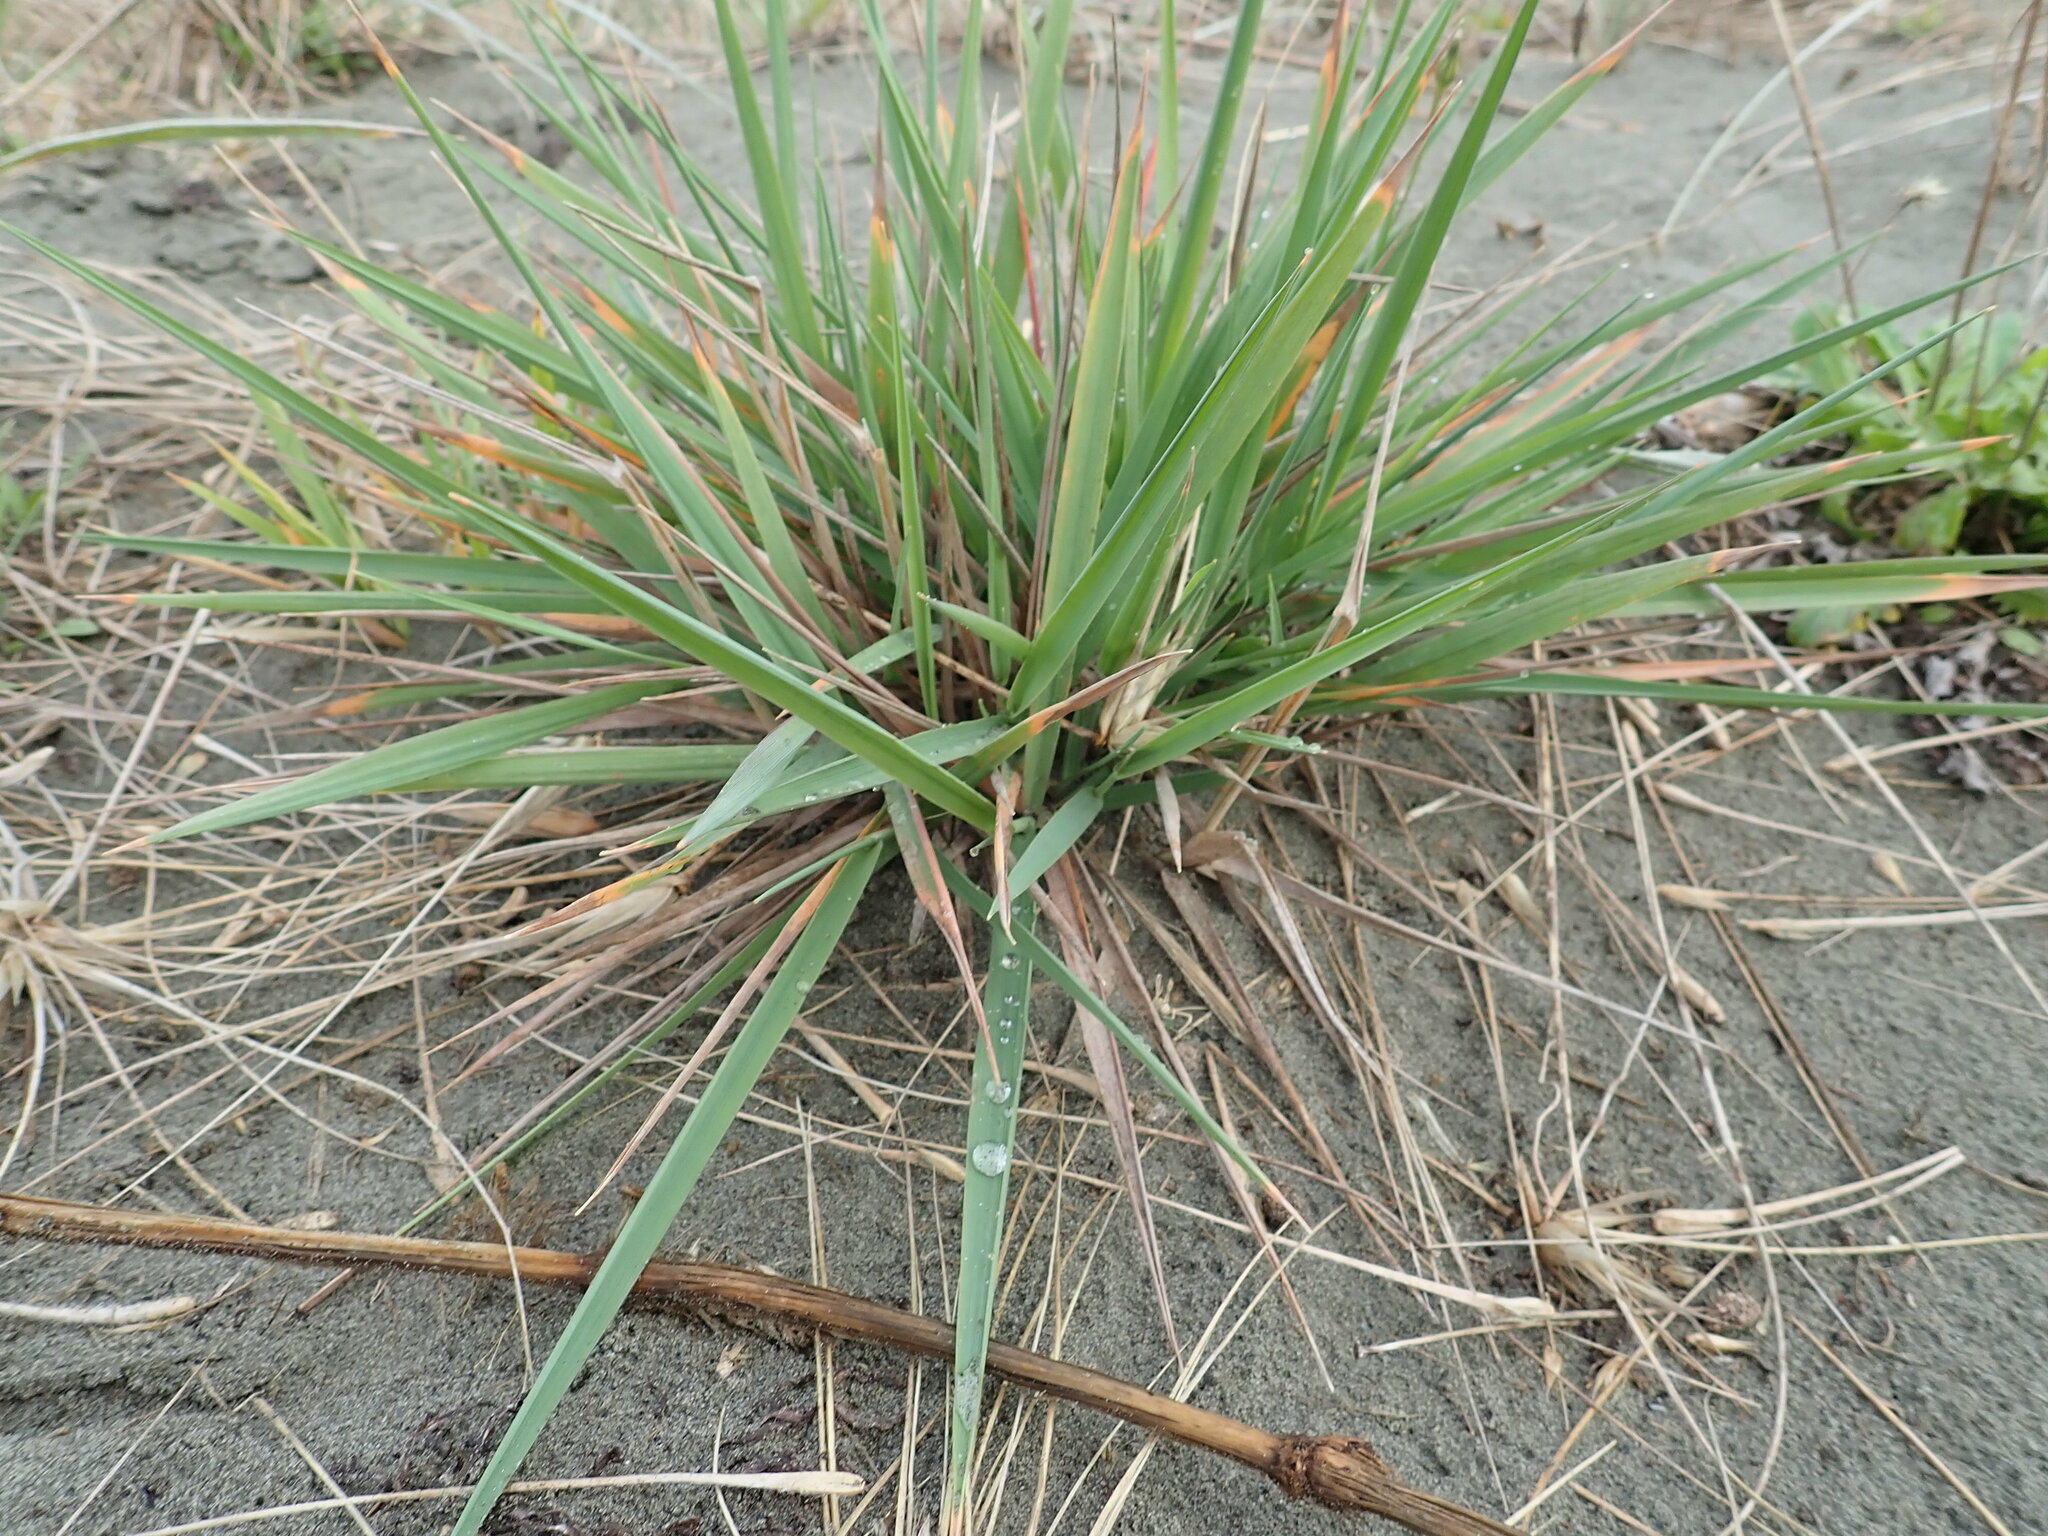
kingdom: Plantae
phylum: Tracheophyta
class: Liliopsida
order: Poales
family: Poaceae
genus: Lachnagrostis
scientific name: Lachnagrostis billardierei
